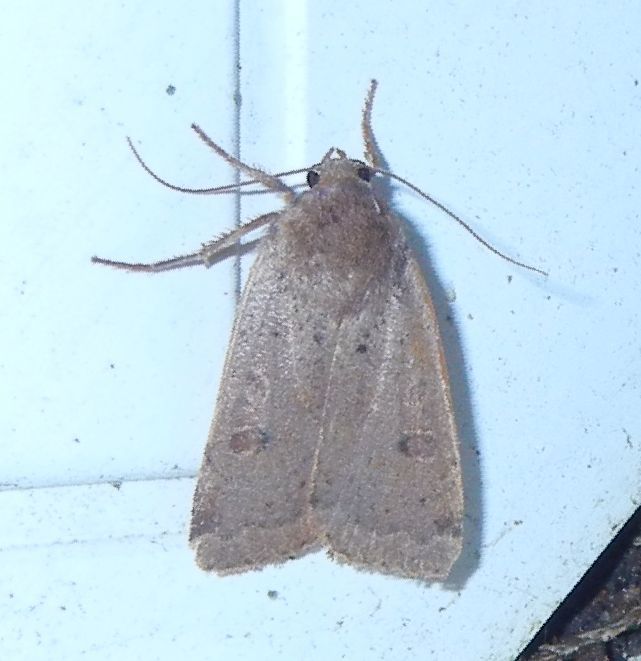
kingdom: Animalia
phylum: Arthropoda
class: Insecta
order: Lepidoptera
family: Noctuidae
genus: Noctua
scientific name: Noctua comes
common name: Lesser yellow underwing
